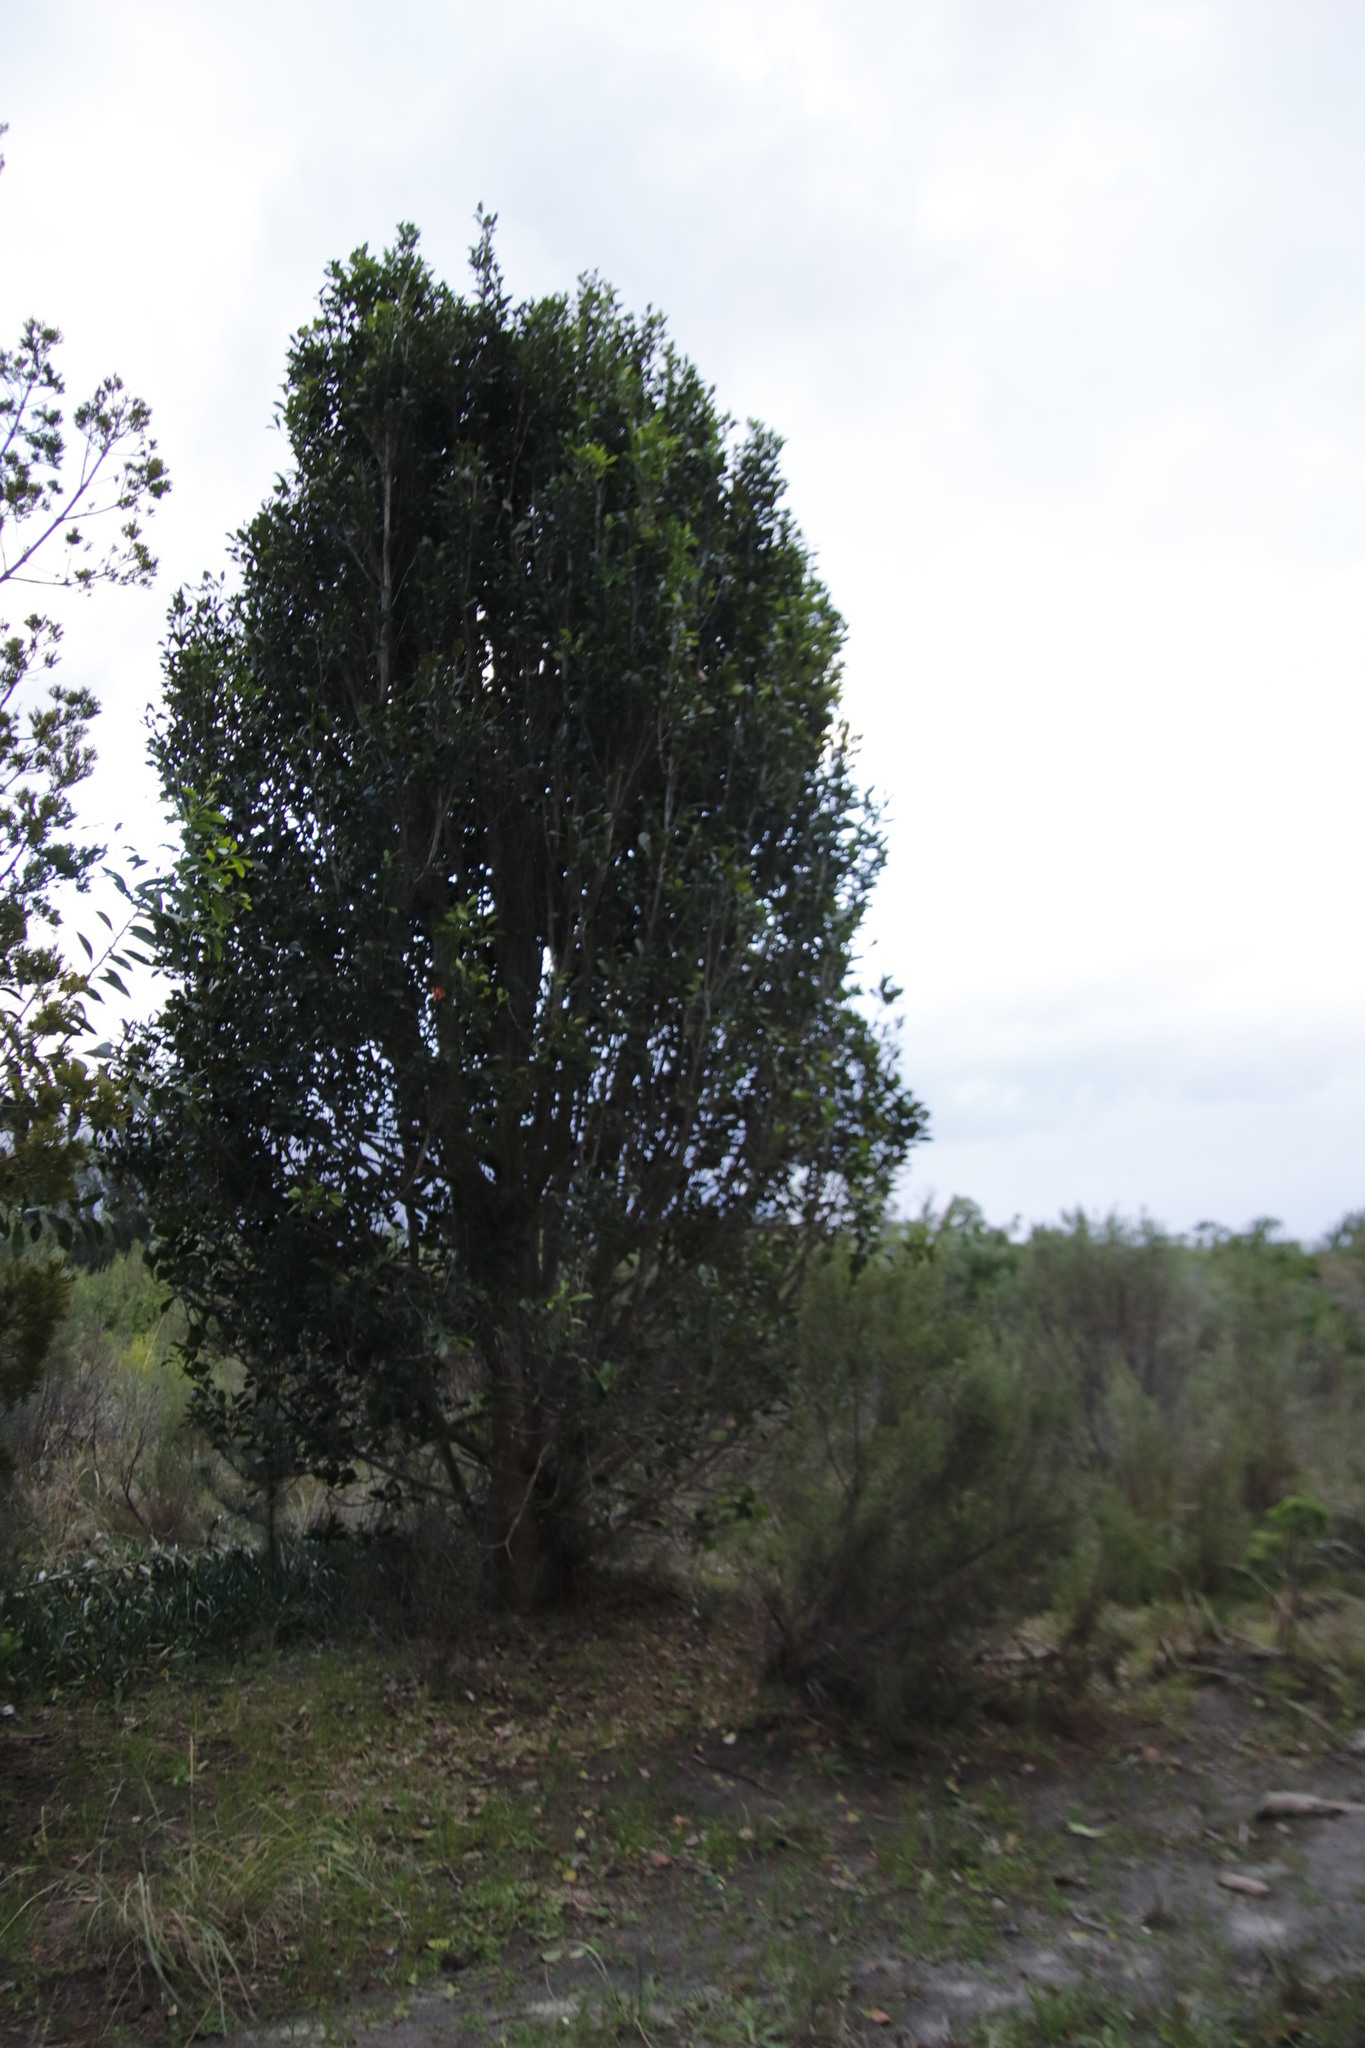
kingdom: Plantae
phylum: Tracheophyta
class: Magnoliopsida
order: Celastrales
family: Celastraceae
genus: Elaeodendron
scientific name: Elaeodendron croceum
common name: Saffron
